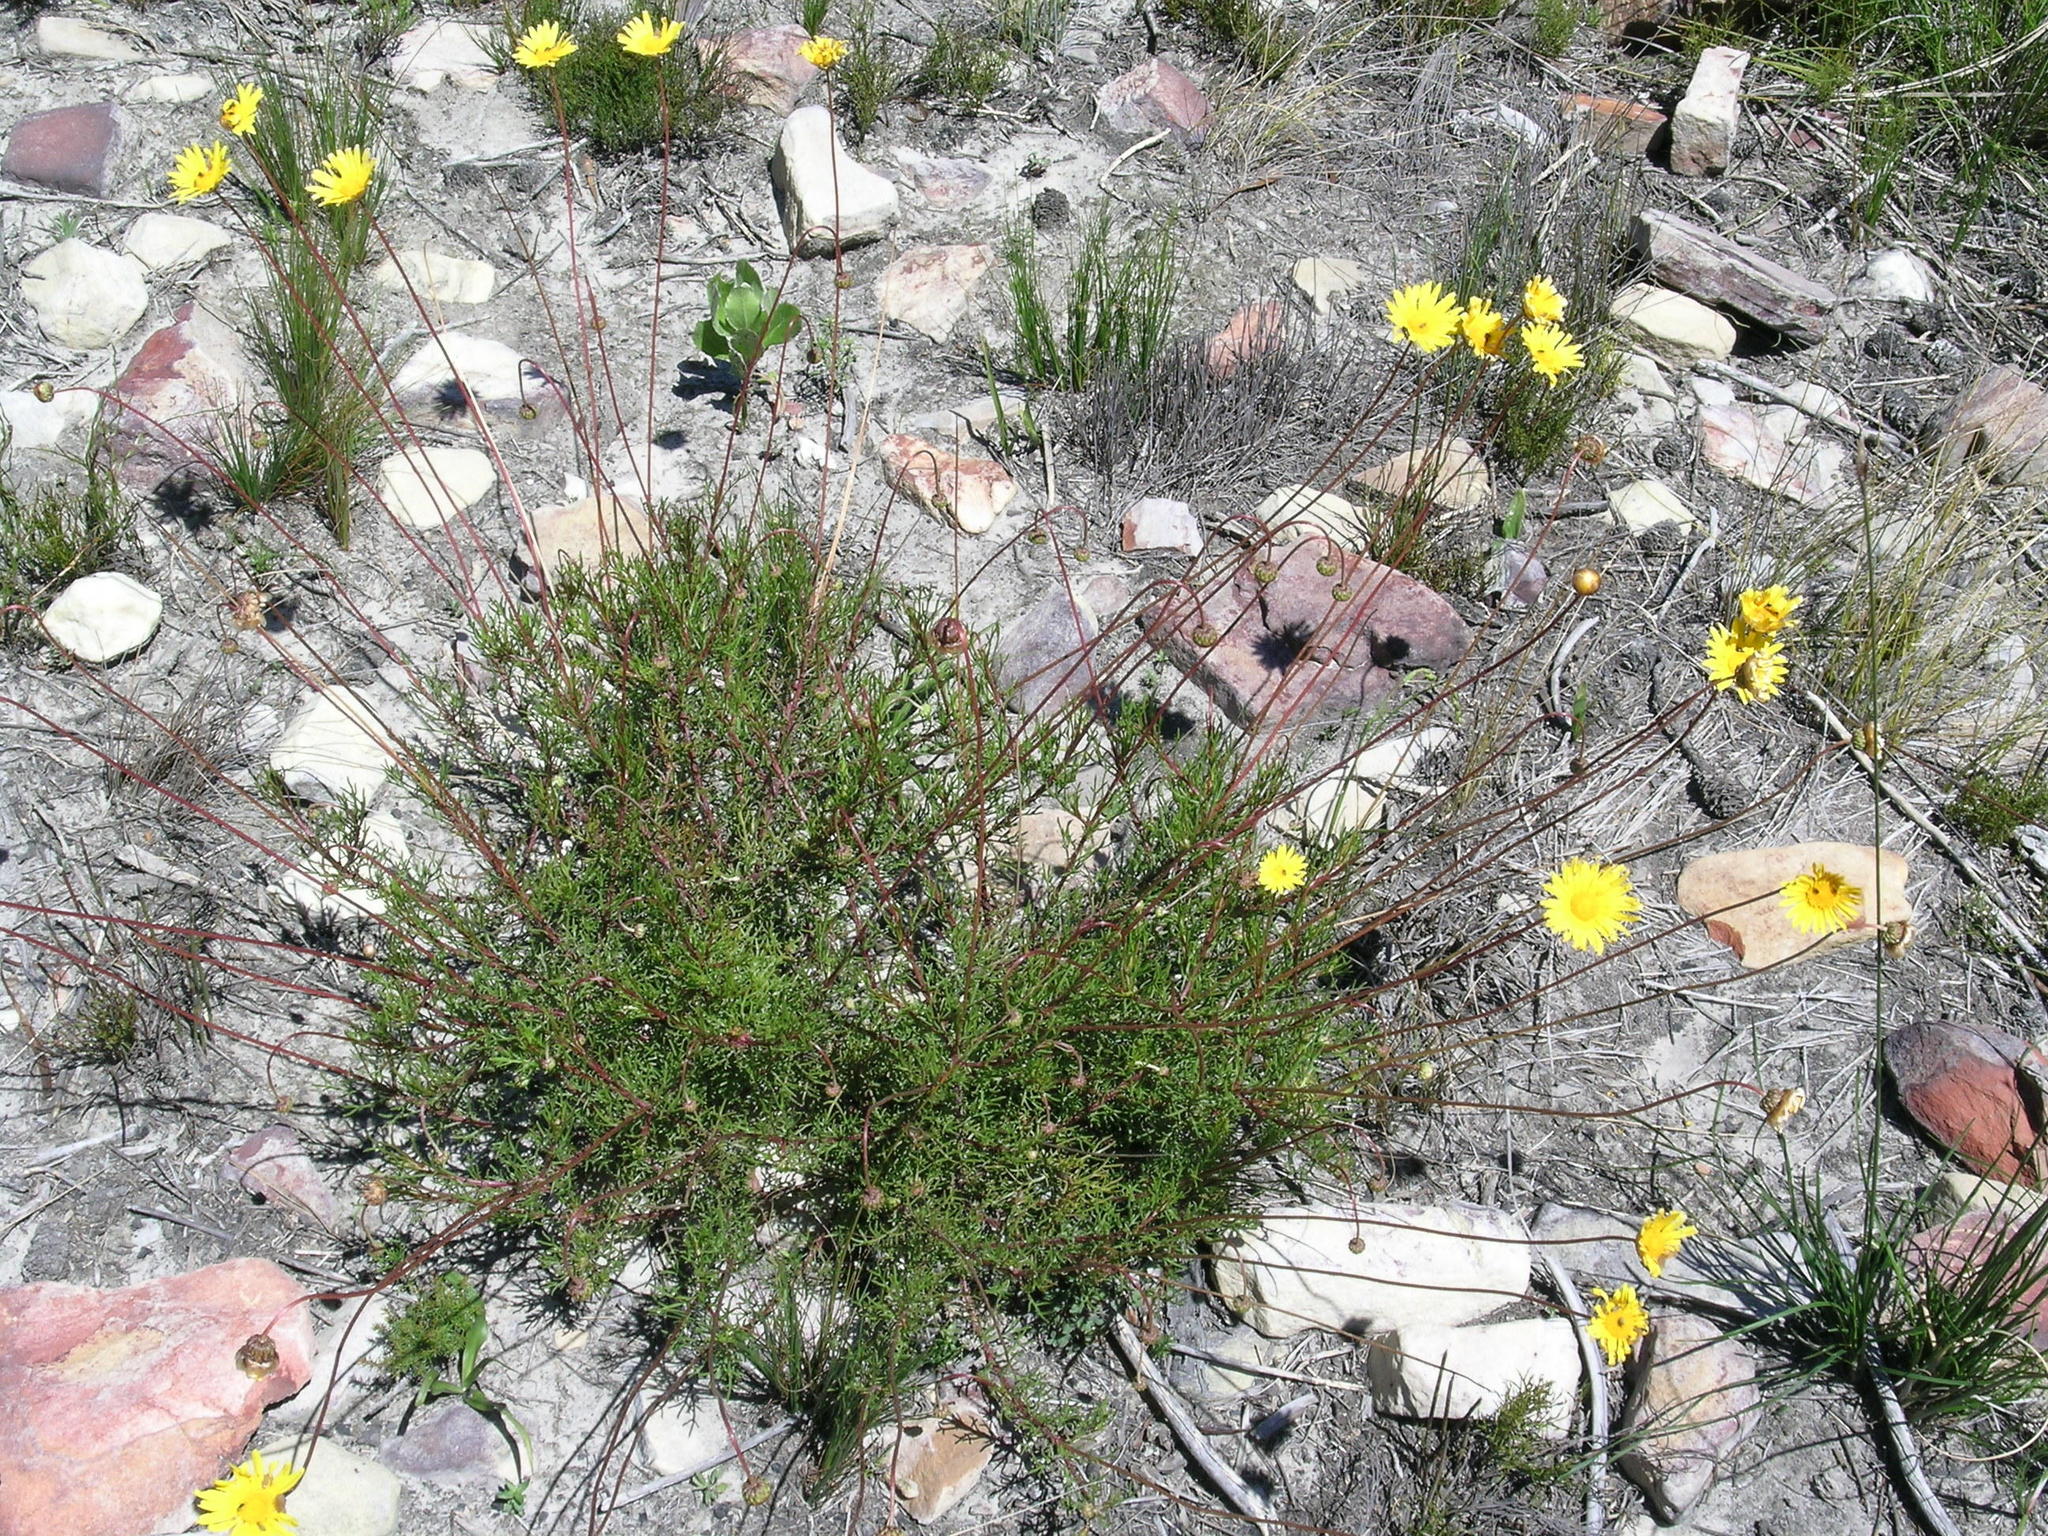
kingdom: Plantae
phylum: Tracheophyta
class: Magnoliopsida
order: Asterales
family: Asteraceae
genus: Ursinia
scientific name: Ursinia paleacea
